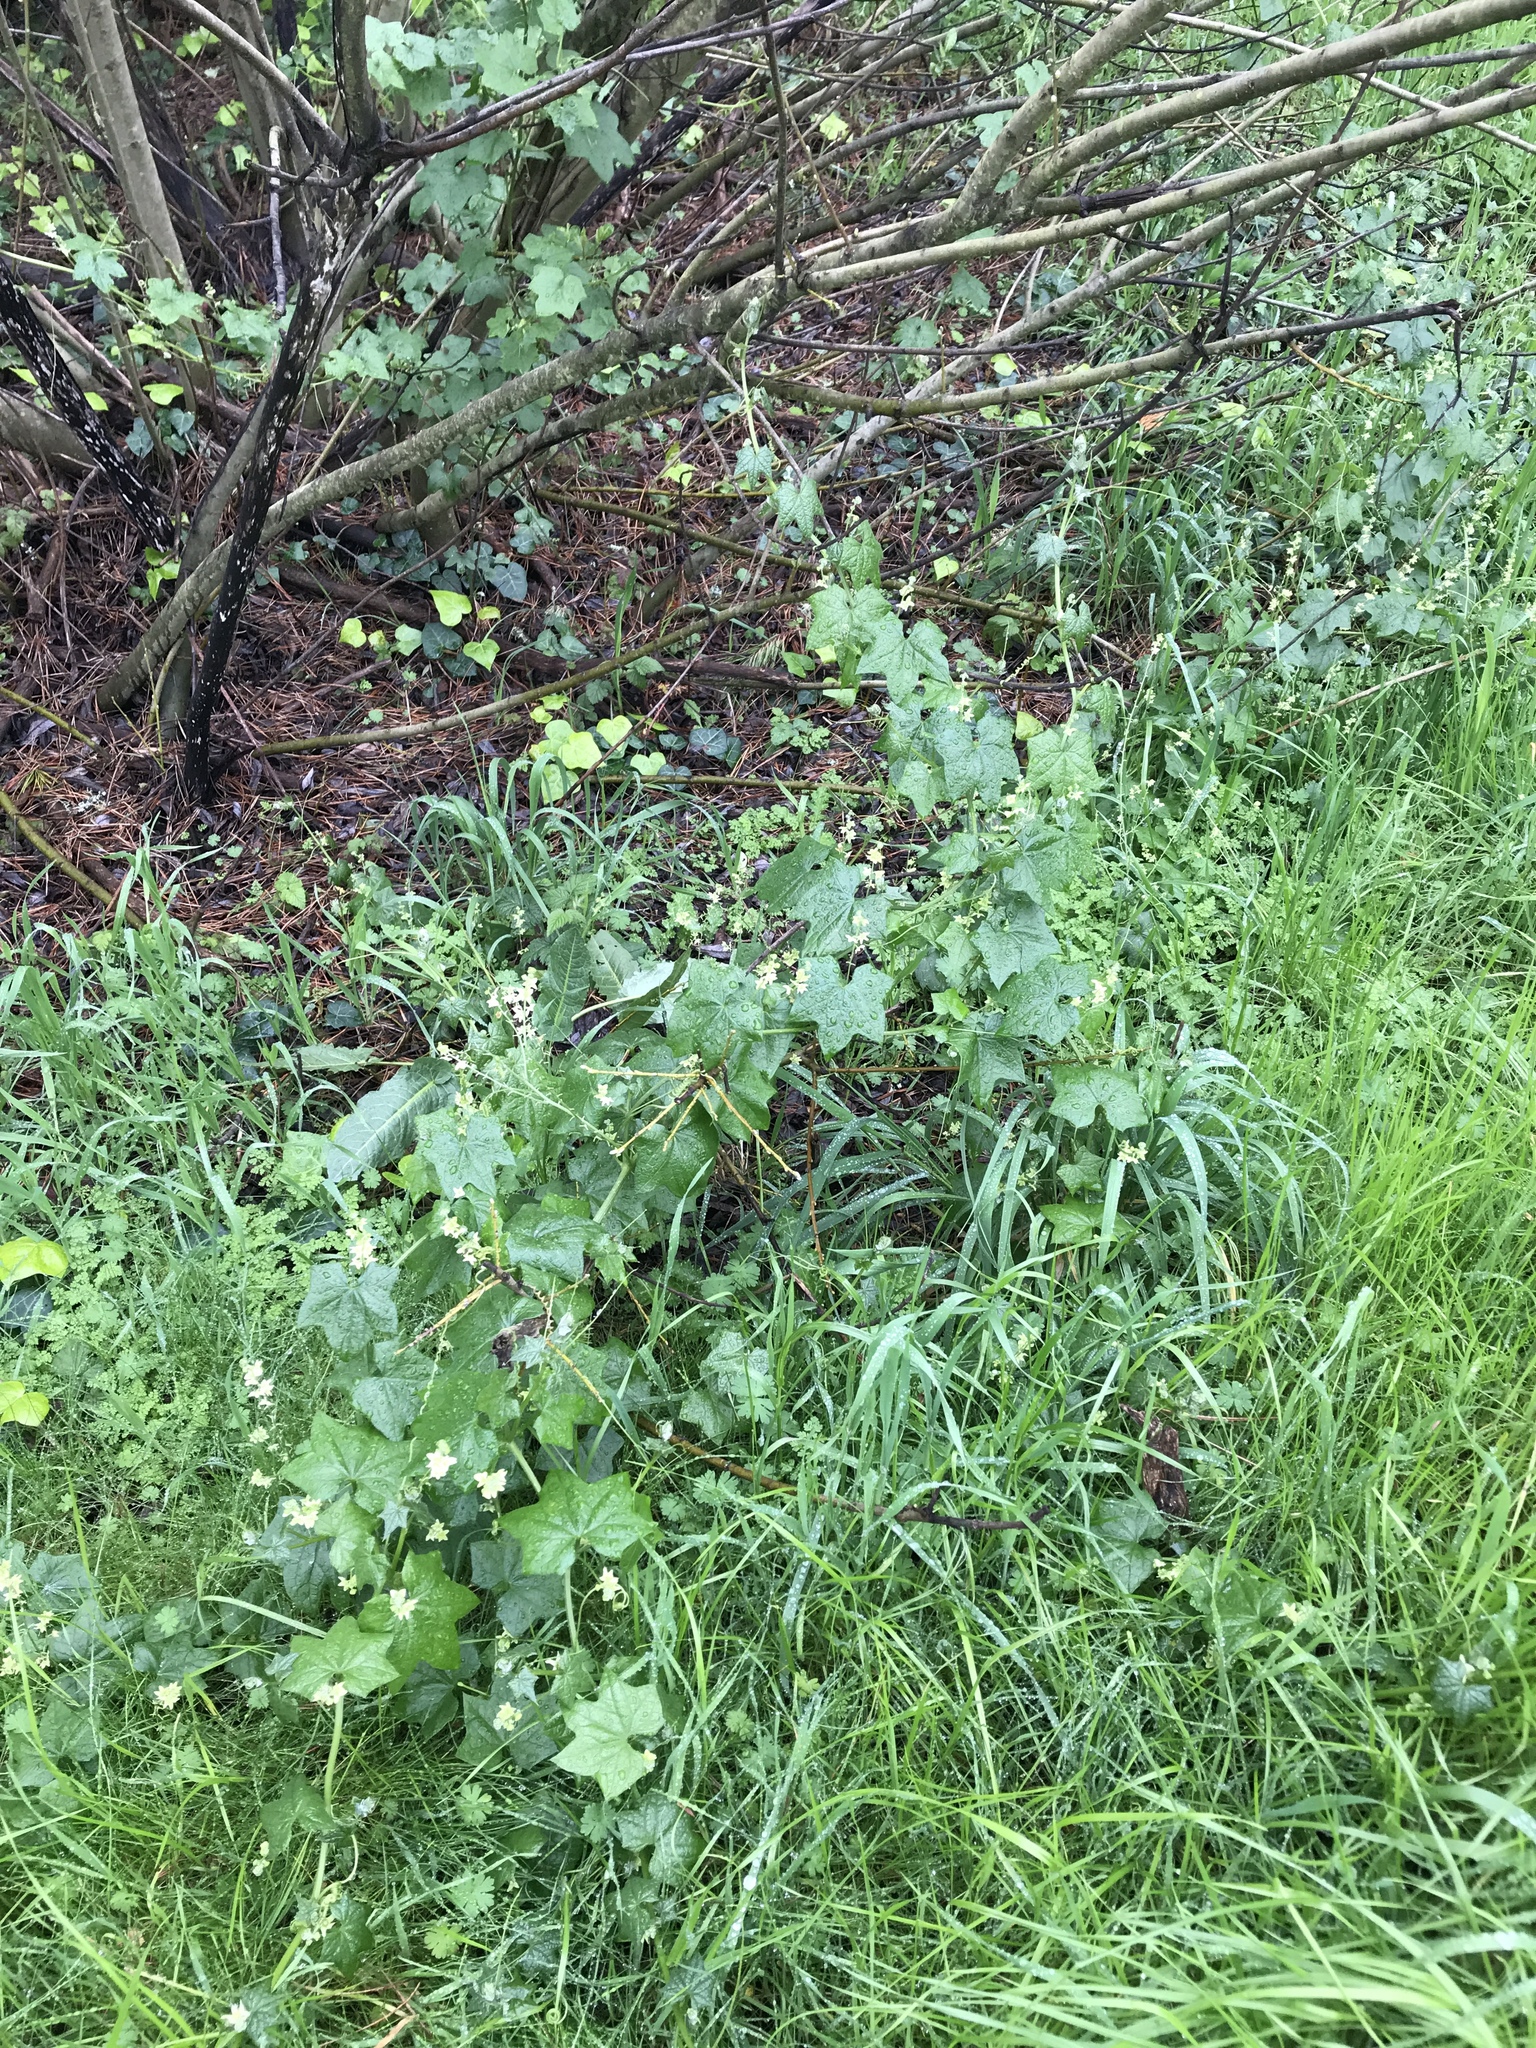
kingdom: Plantae
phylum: Tracheophyta
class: Magnoliopsida
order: Cucurbitales
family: Cucurbitaceae
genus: Marah
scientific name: Marah fabacea
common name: California manroot
